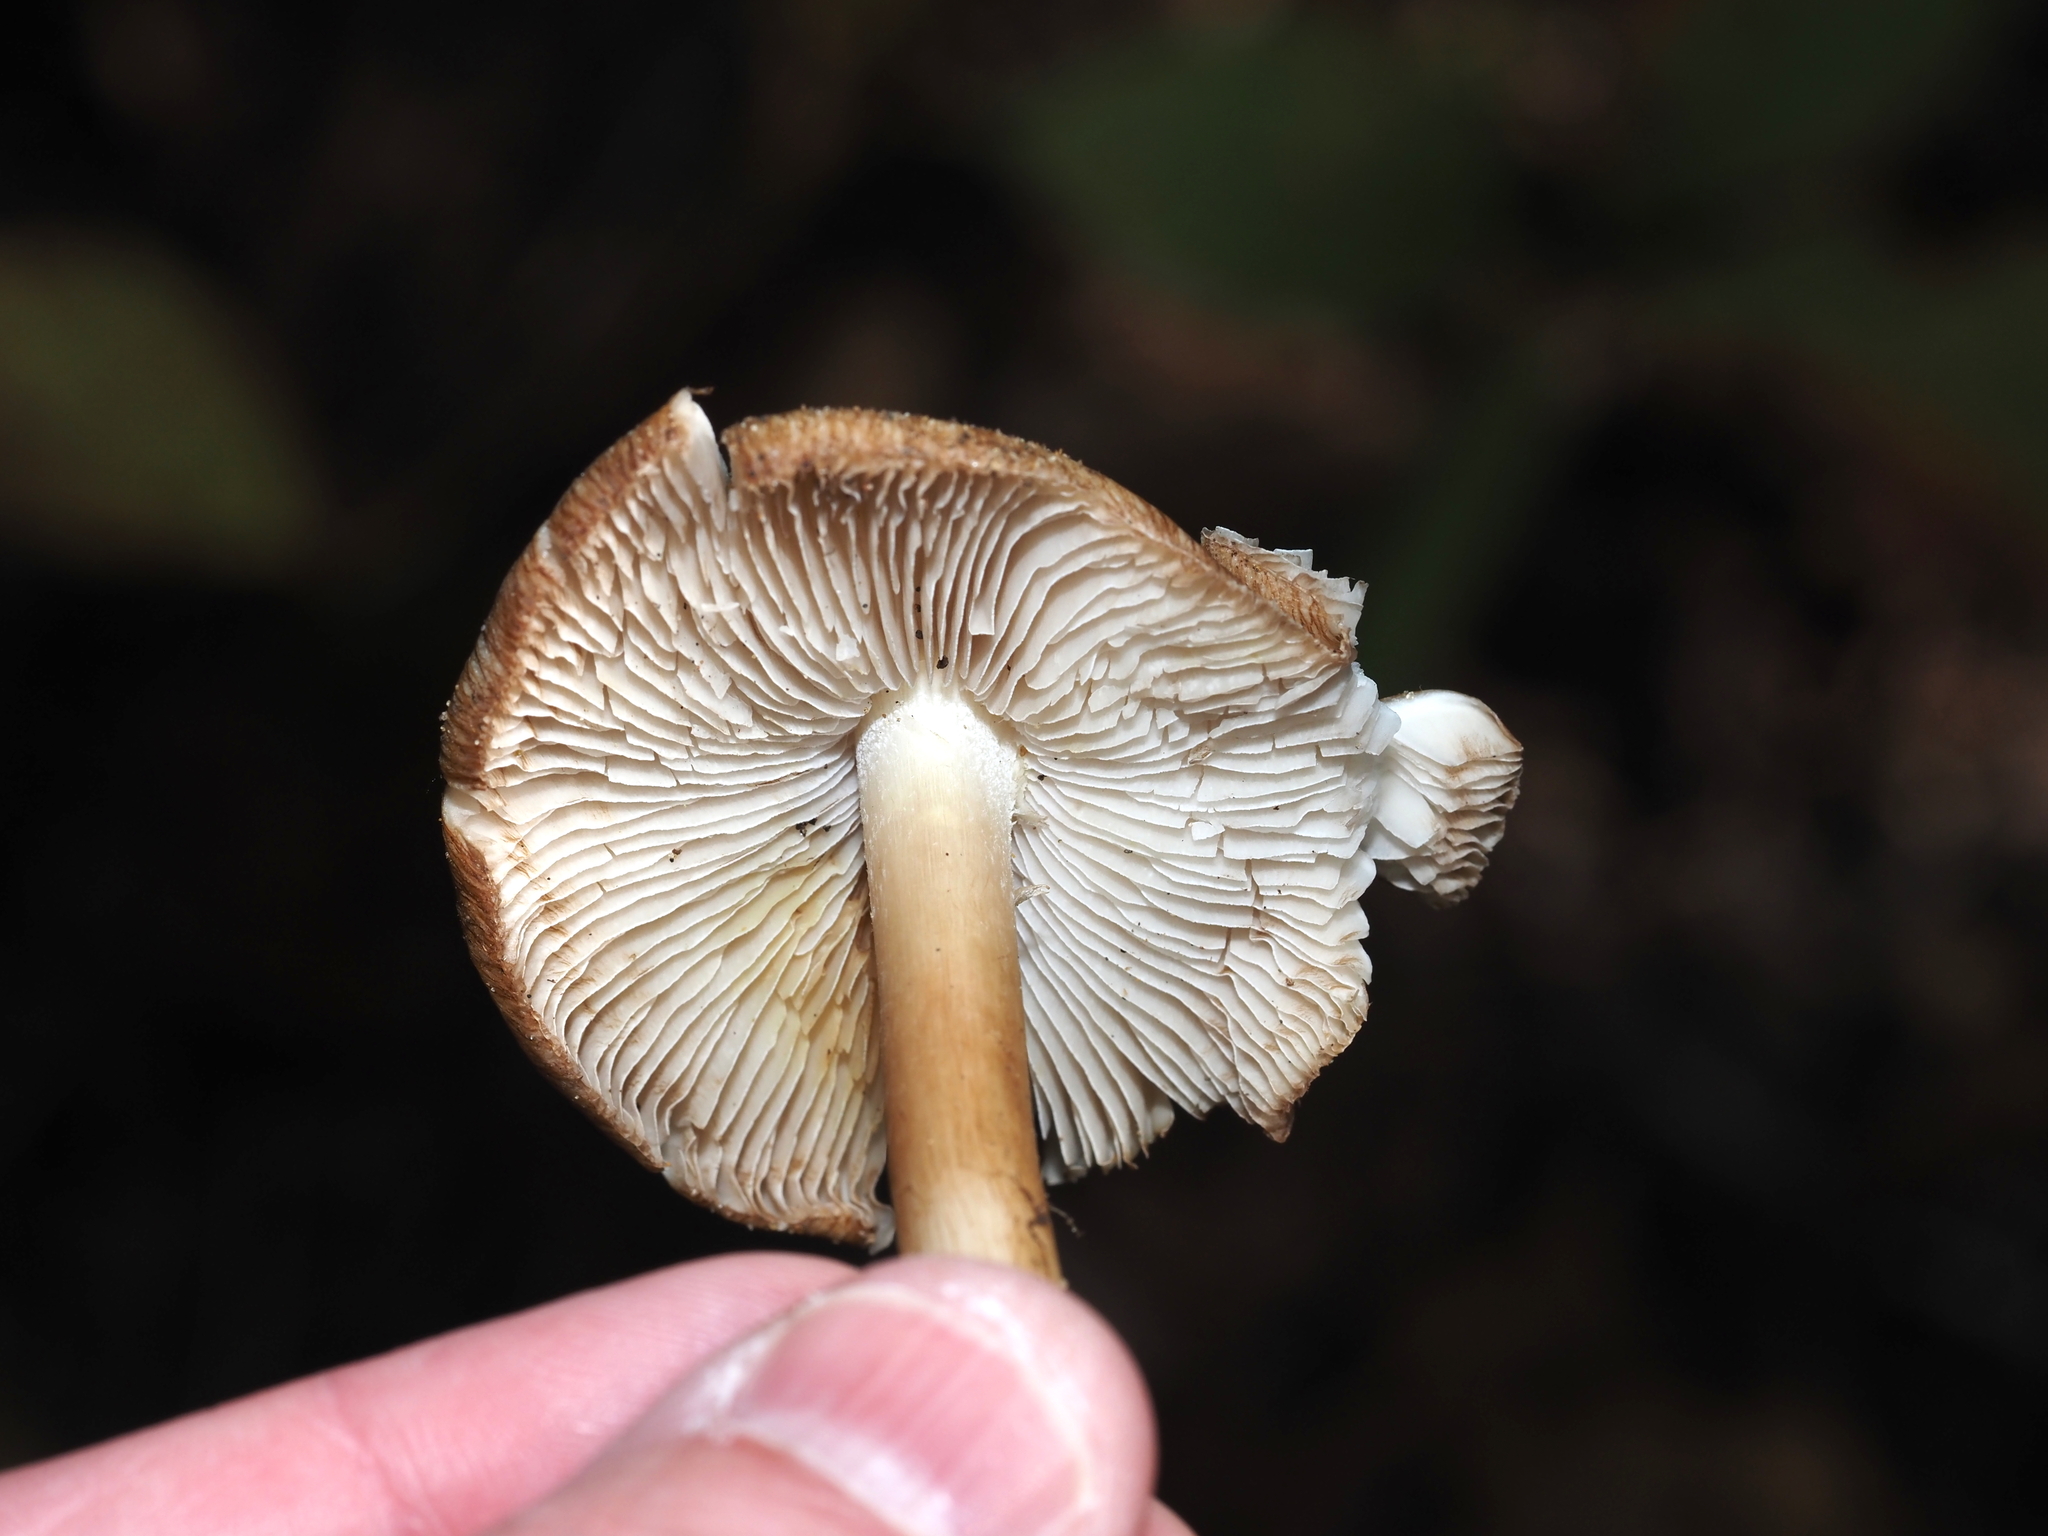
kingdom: Fungi
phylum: Basidiomycota
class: Agaricomycetes
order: Agaricales
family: Inocybaceae
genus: Pseudosperma
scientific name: Pseudosperma sororium
